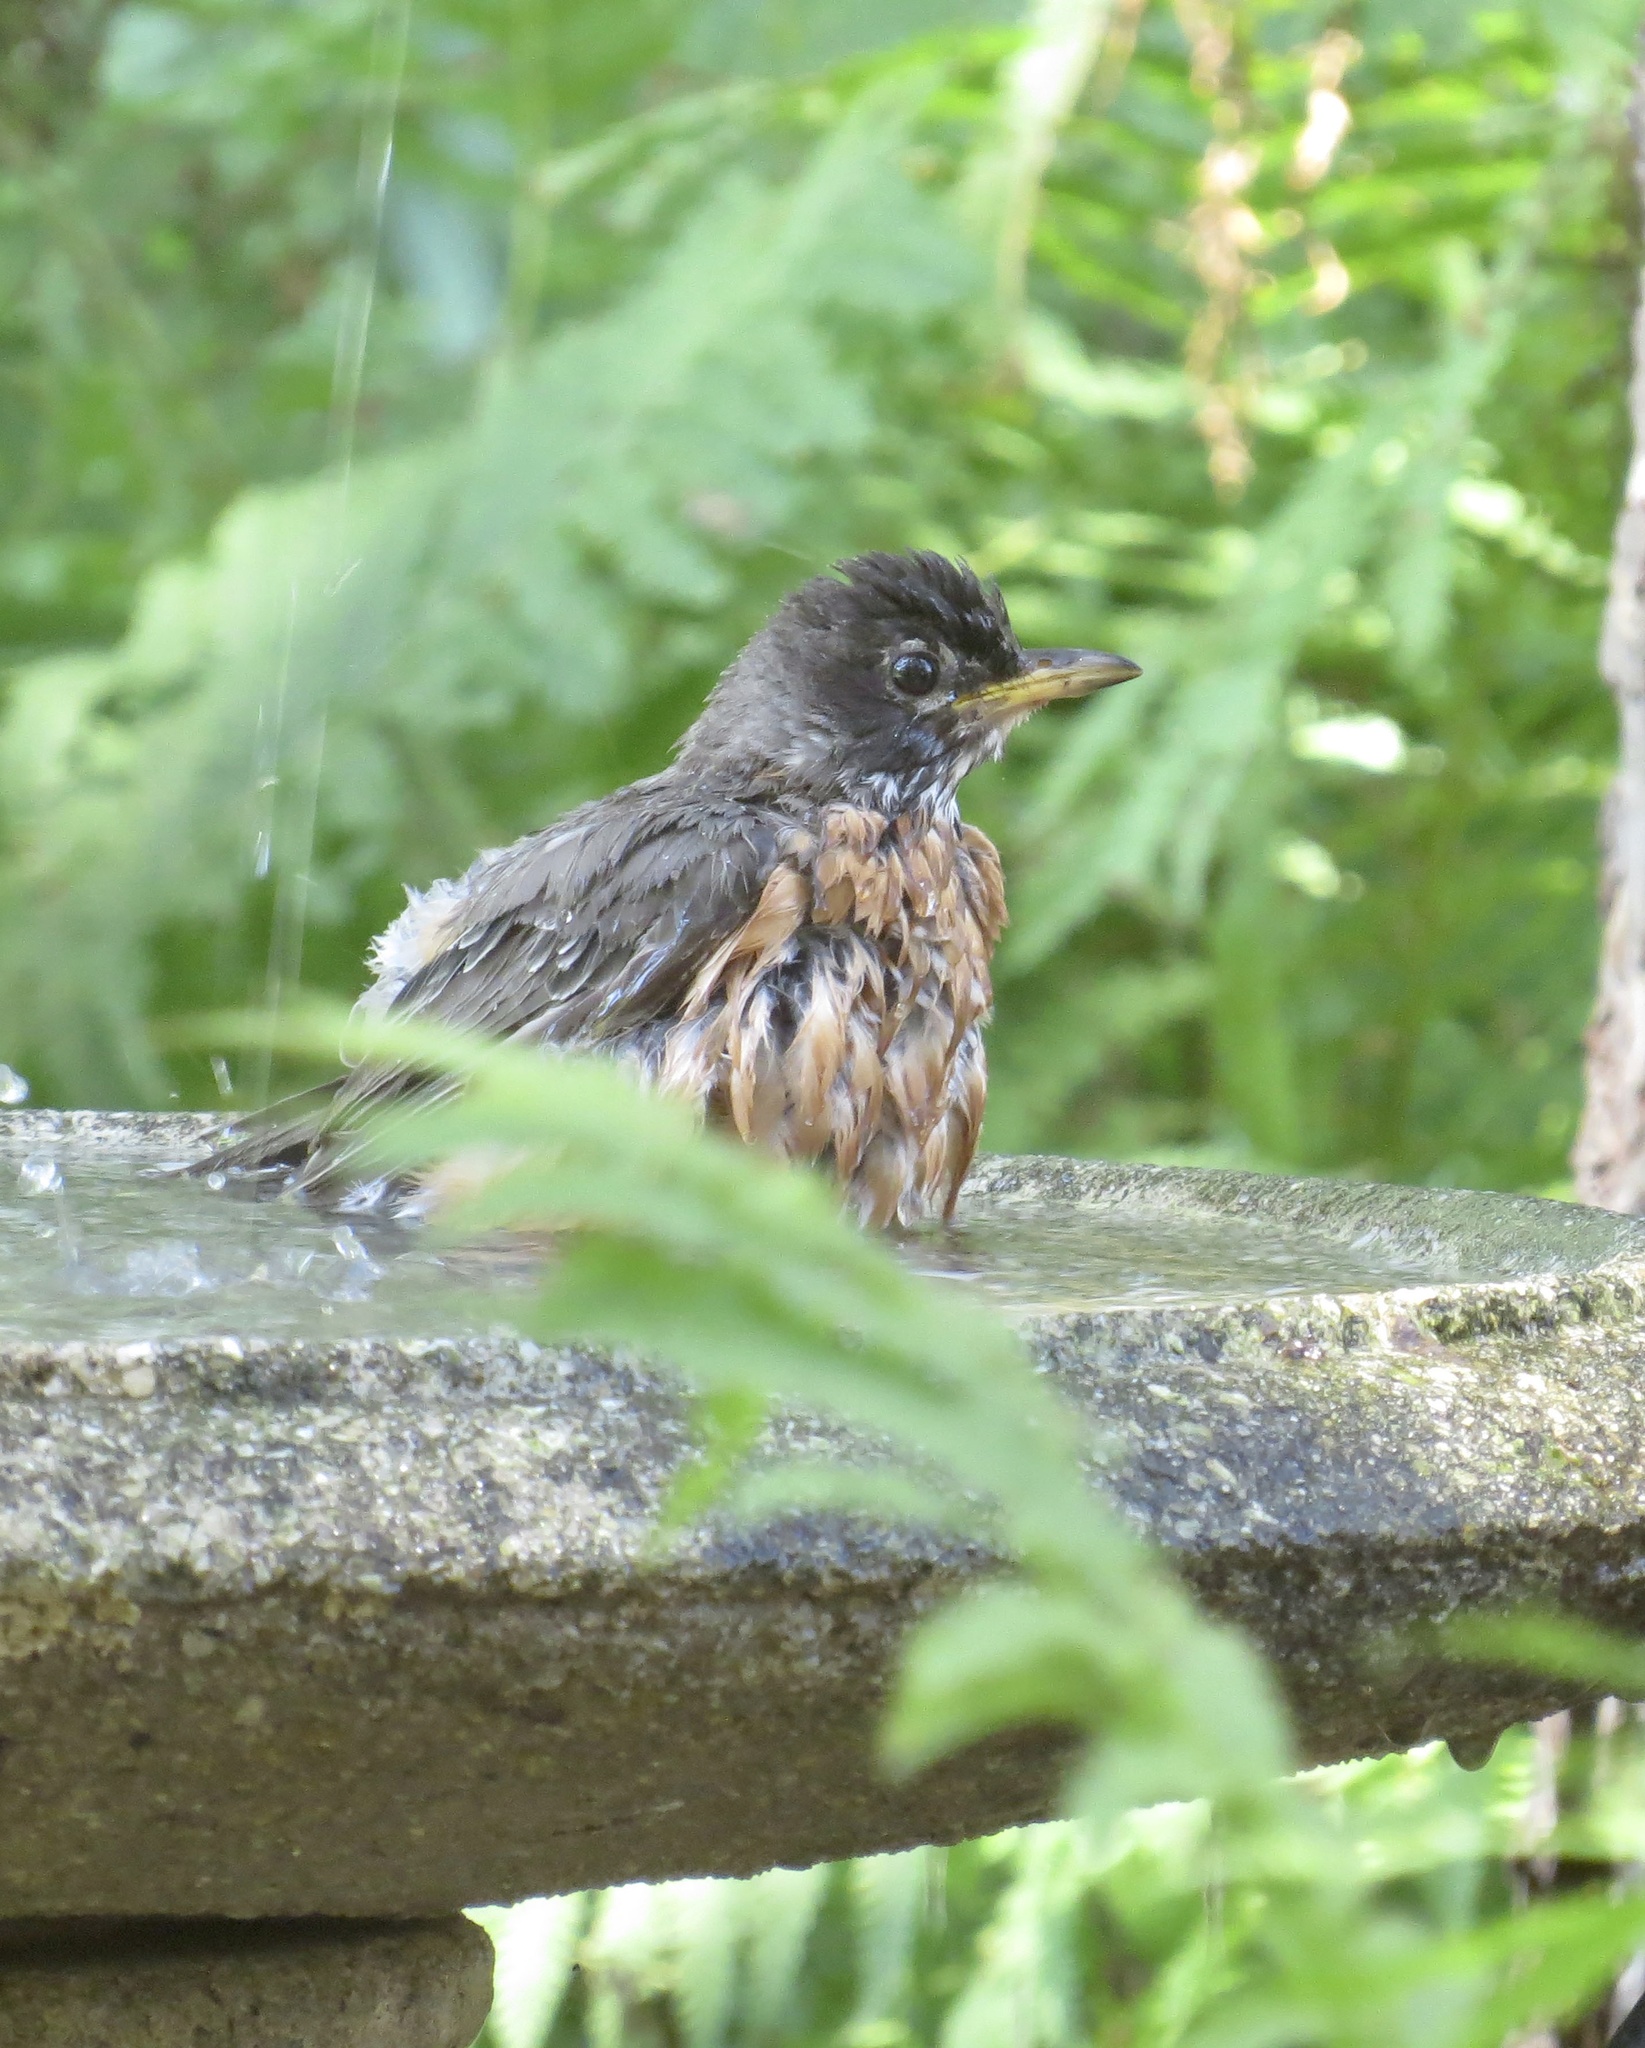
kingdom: Animalia
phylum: Chordata
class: Aves
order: Passeriformes
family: Turdidae
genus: Turdus
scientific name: Turdus migratorius
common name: American robin
